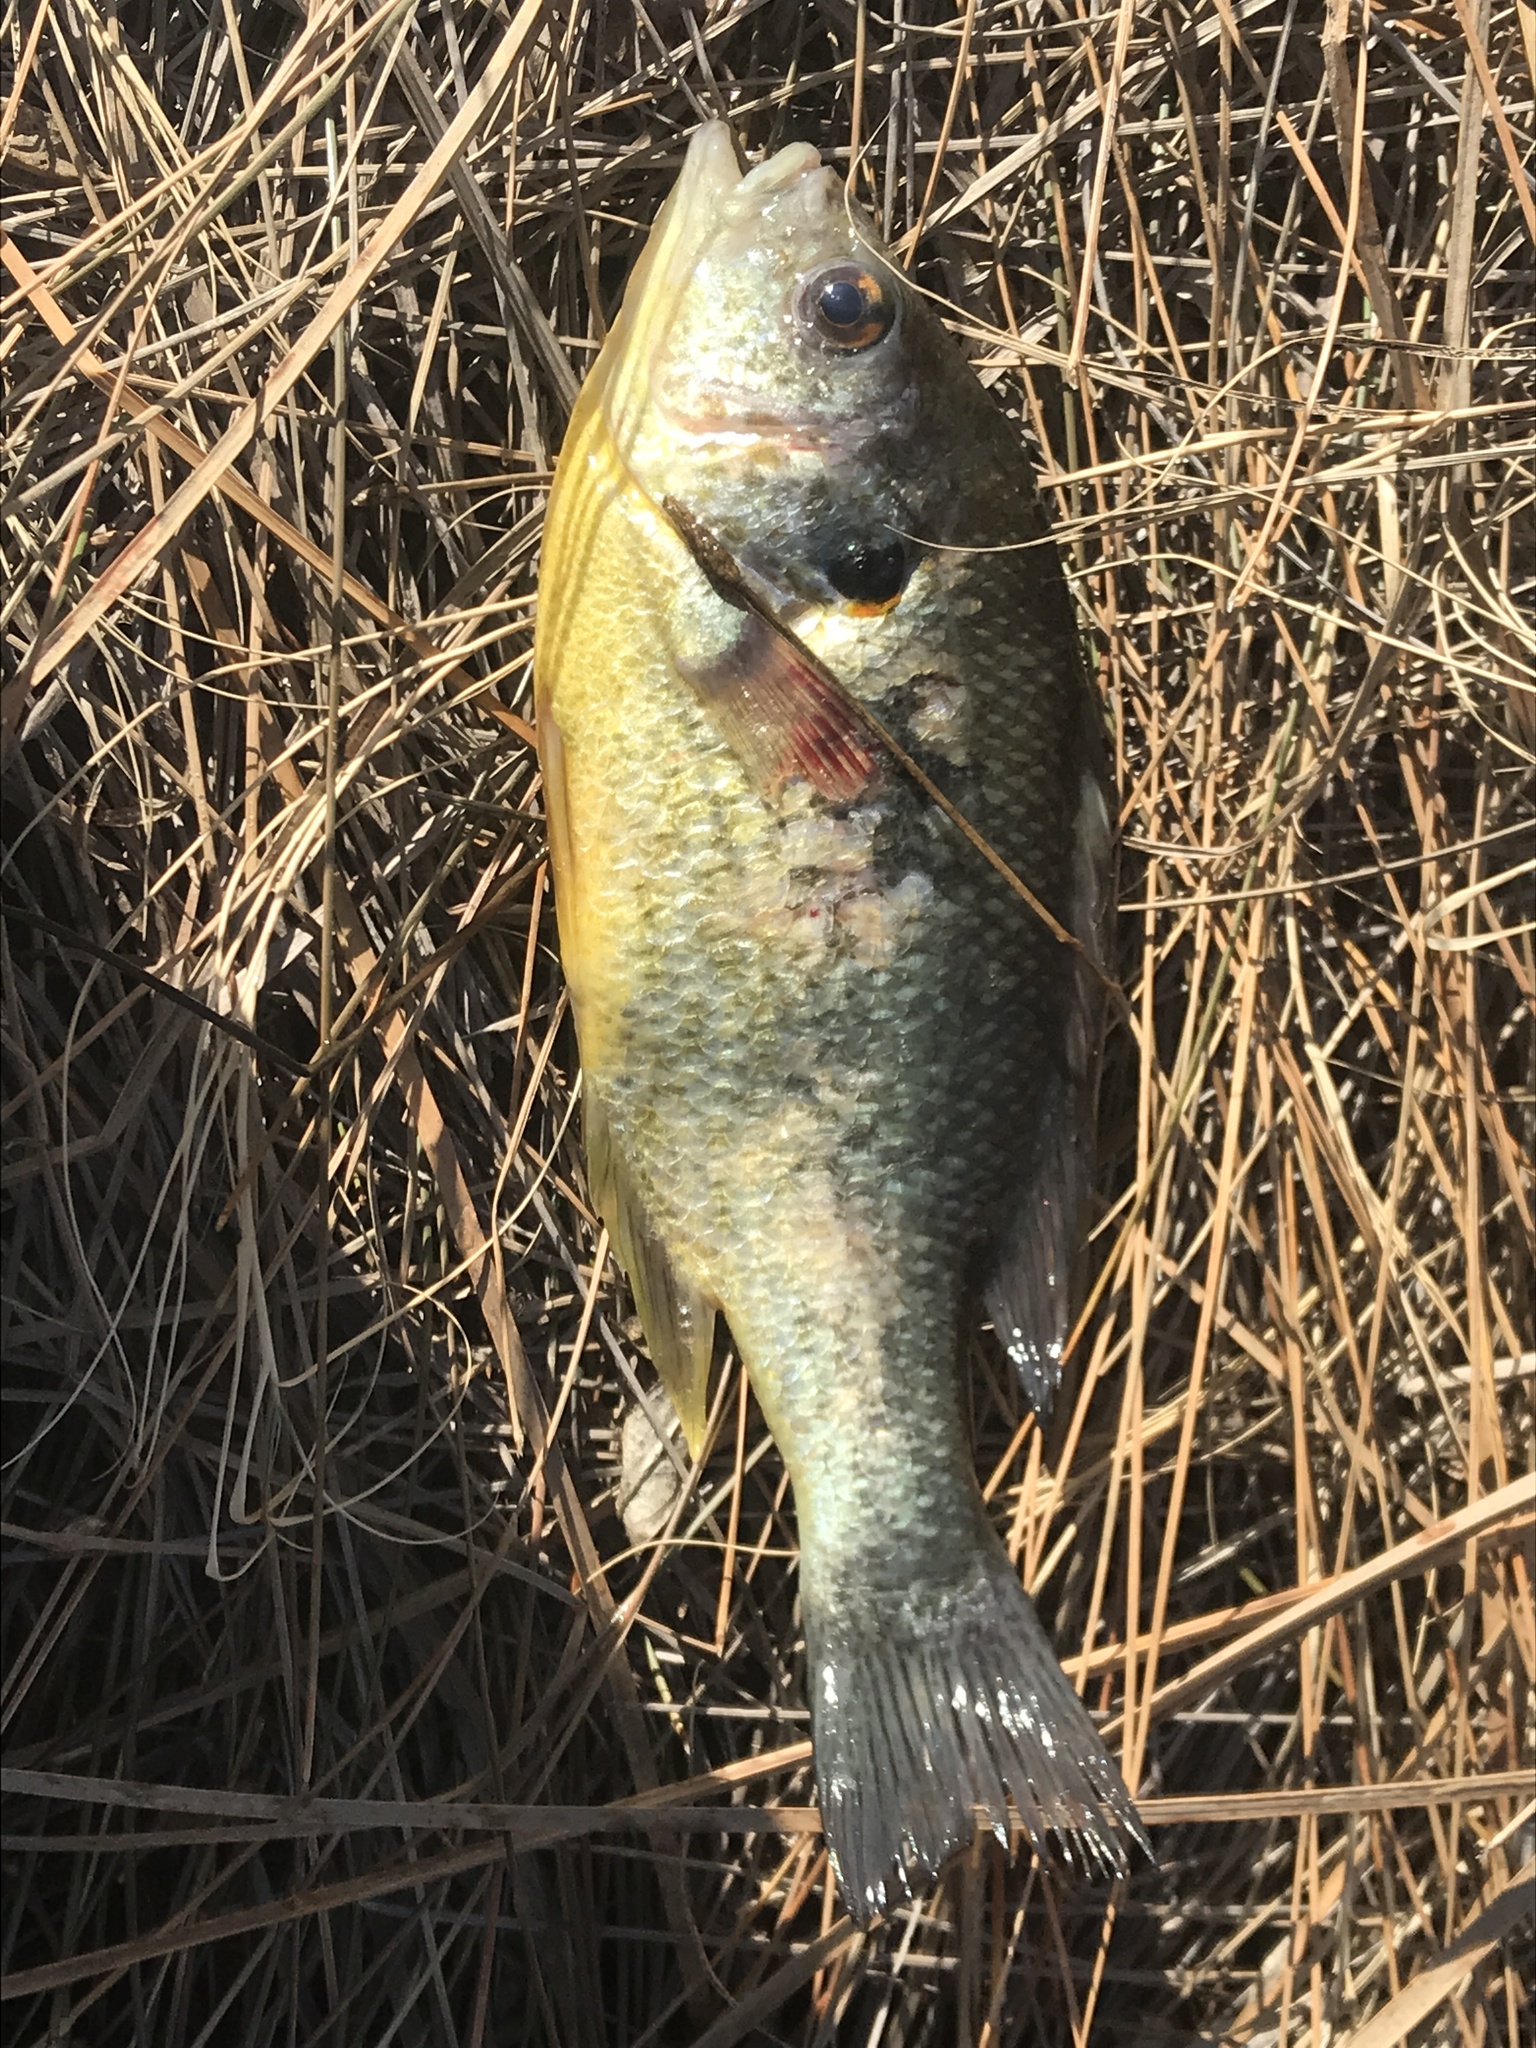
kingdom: Animalia
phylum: Chordata
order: Perciformes
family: Centrarchidae
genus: Lepomis
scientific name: Lepomis microlophus
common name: Redear sunfish
